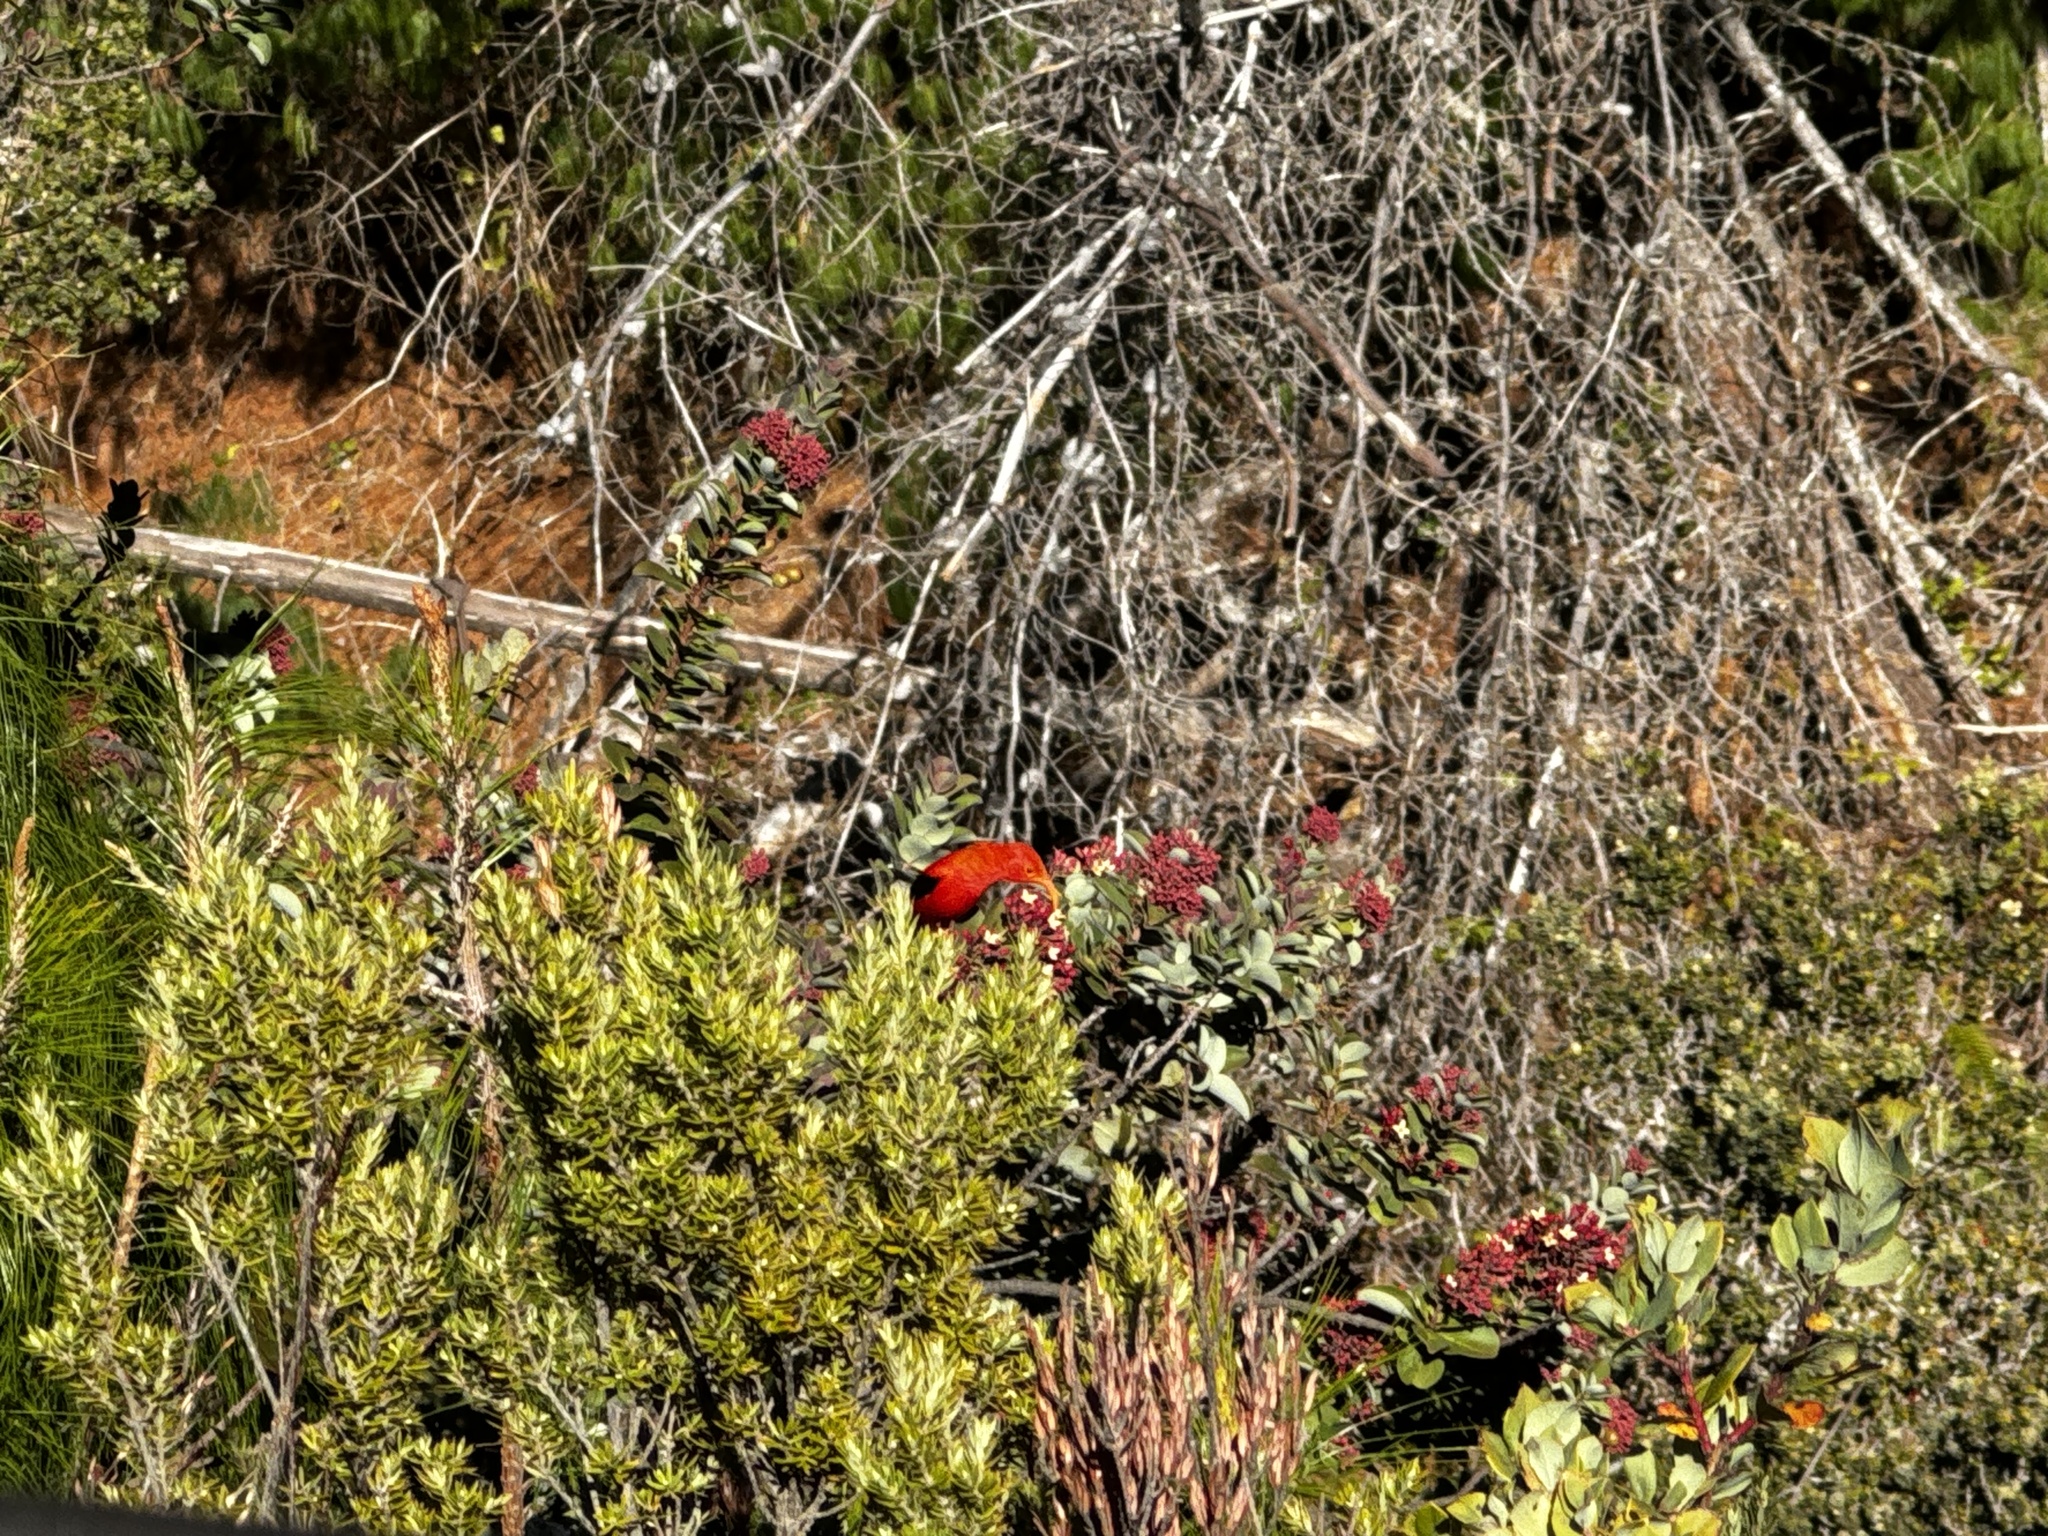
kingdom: Animalia
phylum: Chordata
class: Aves
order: Passeriformes
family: Fringillidae
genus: Vestiaria
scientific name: Vestiaria coccinea
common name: Iiwi
